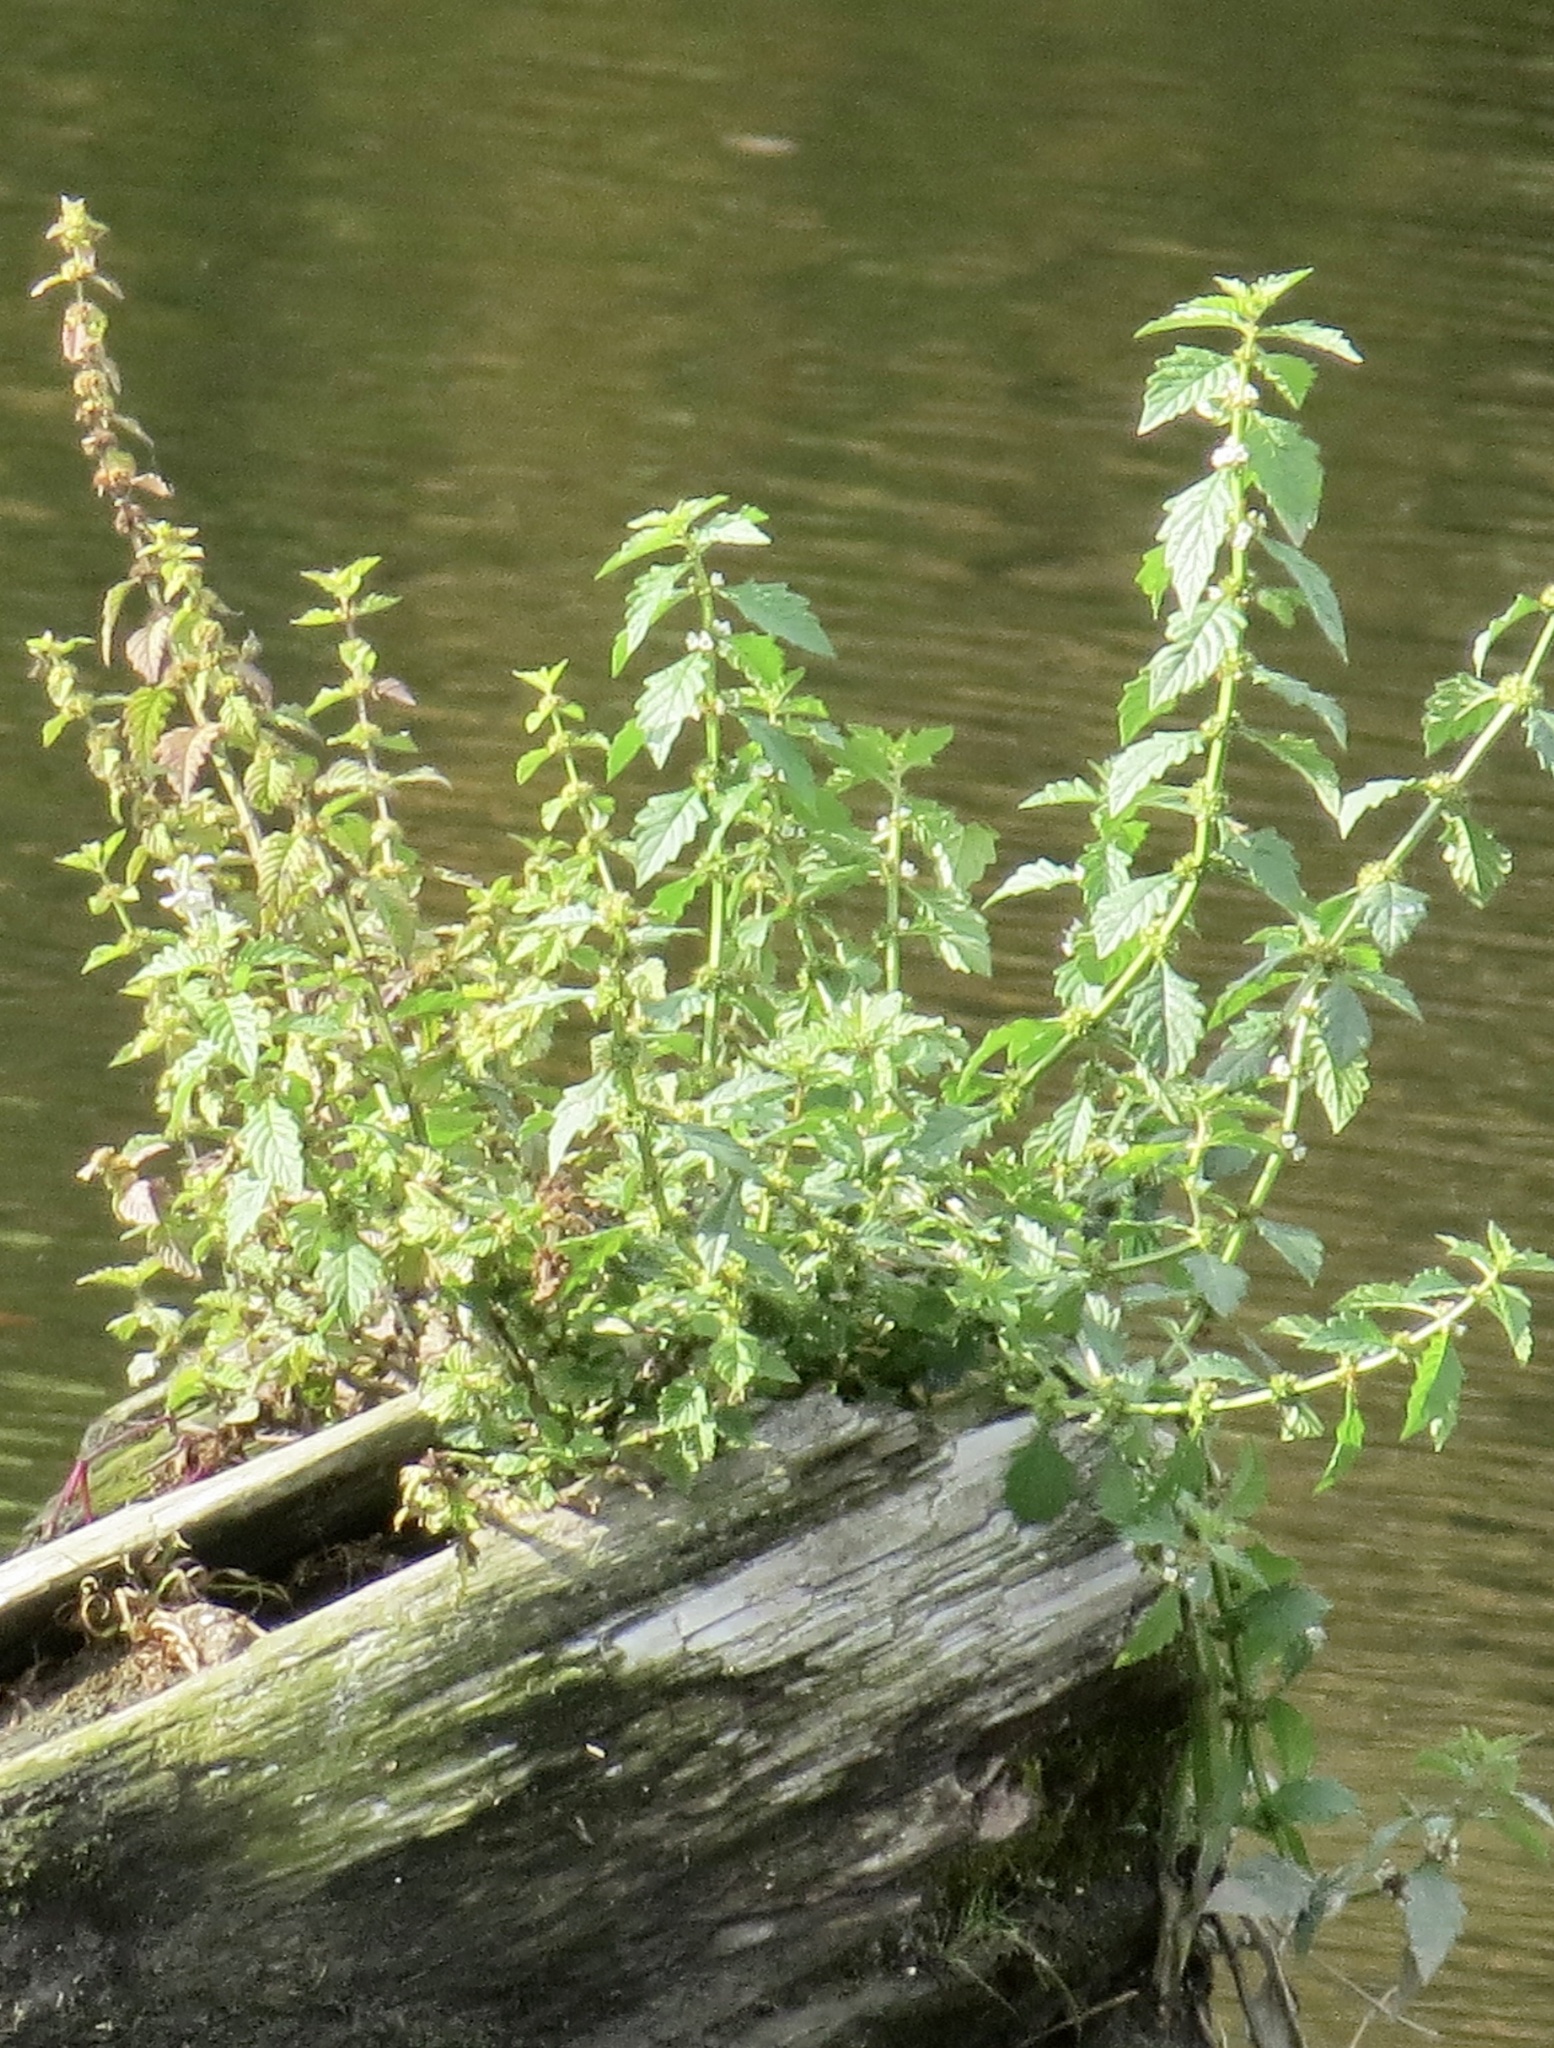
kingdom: Plantae
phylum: Tracheophyta
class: Magnoliopsida
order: Lamiales
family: Lamiaceae
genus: Lycopus
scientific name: Lycopus europaeus
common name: European bugleweed
